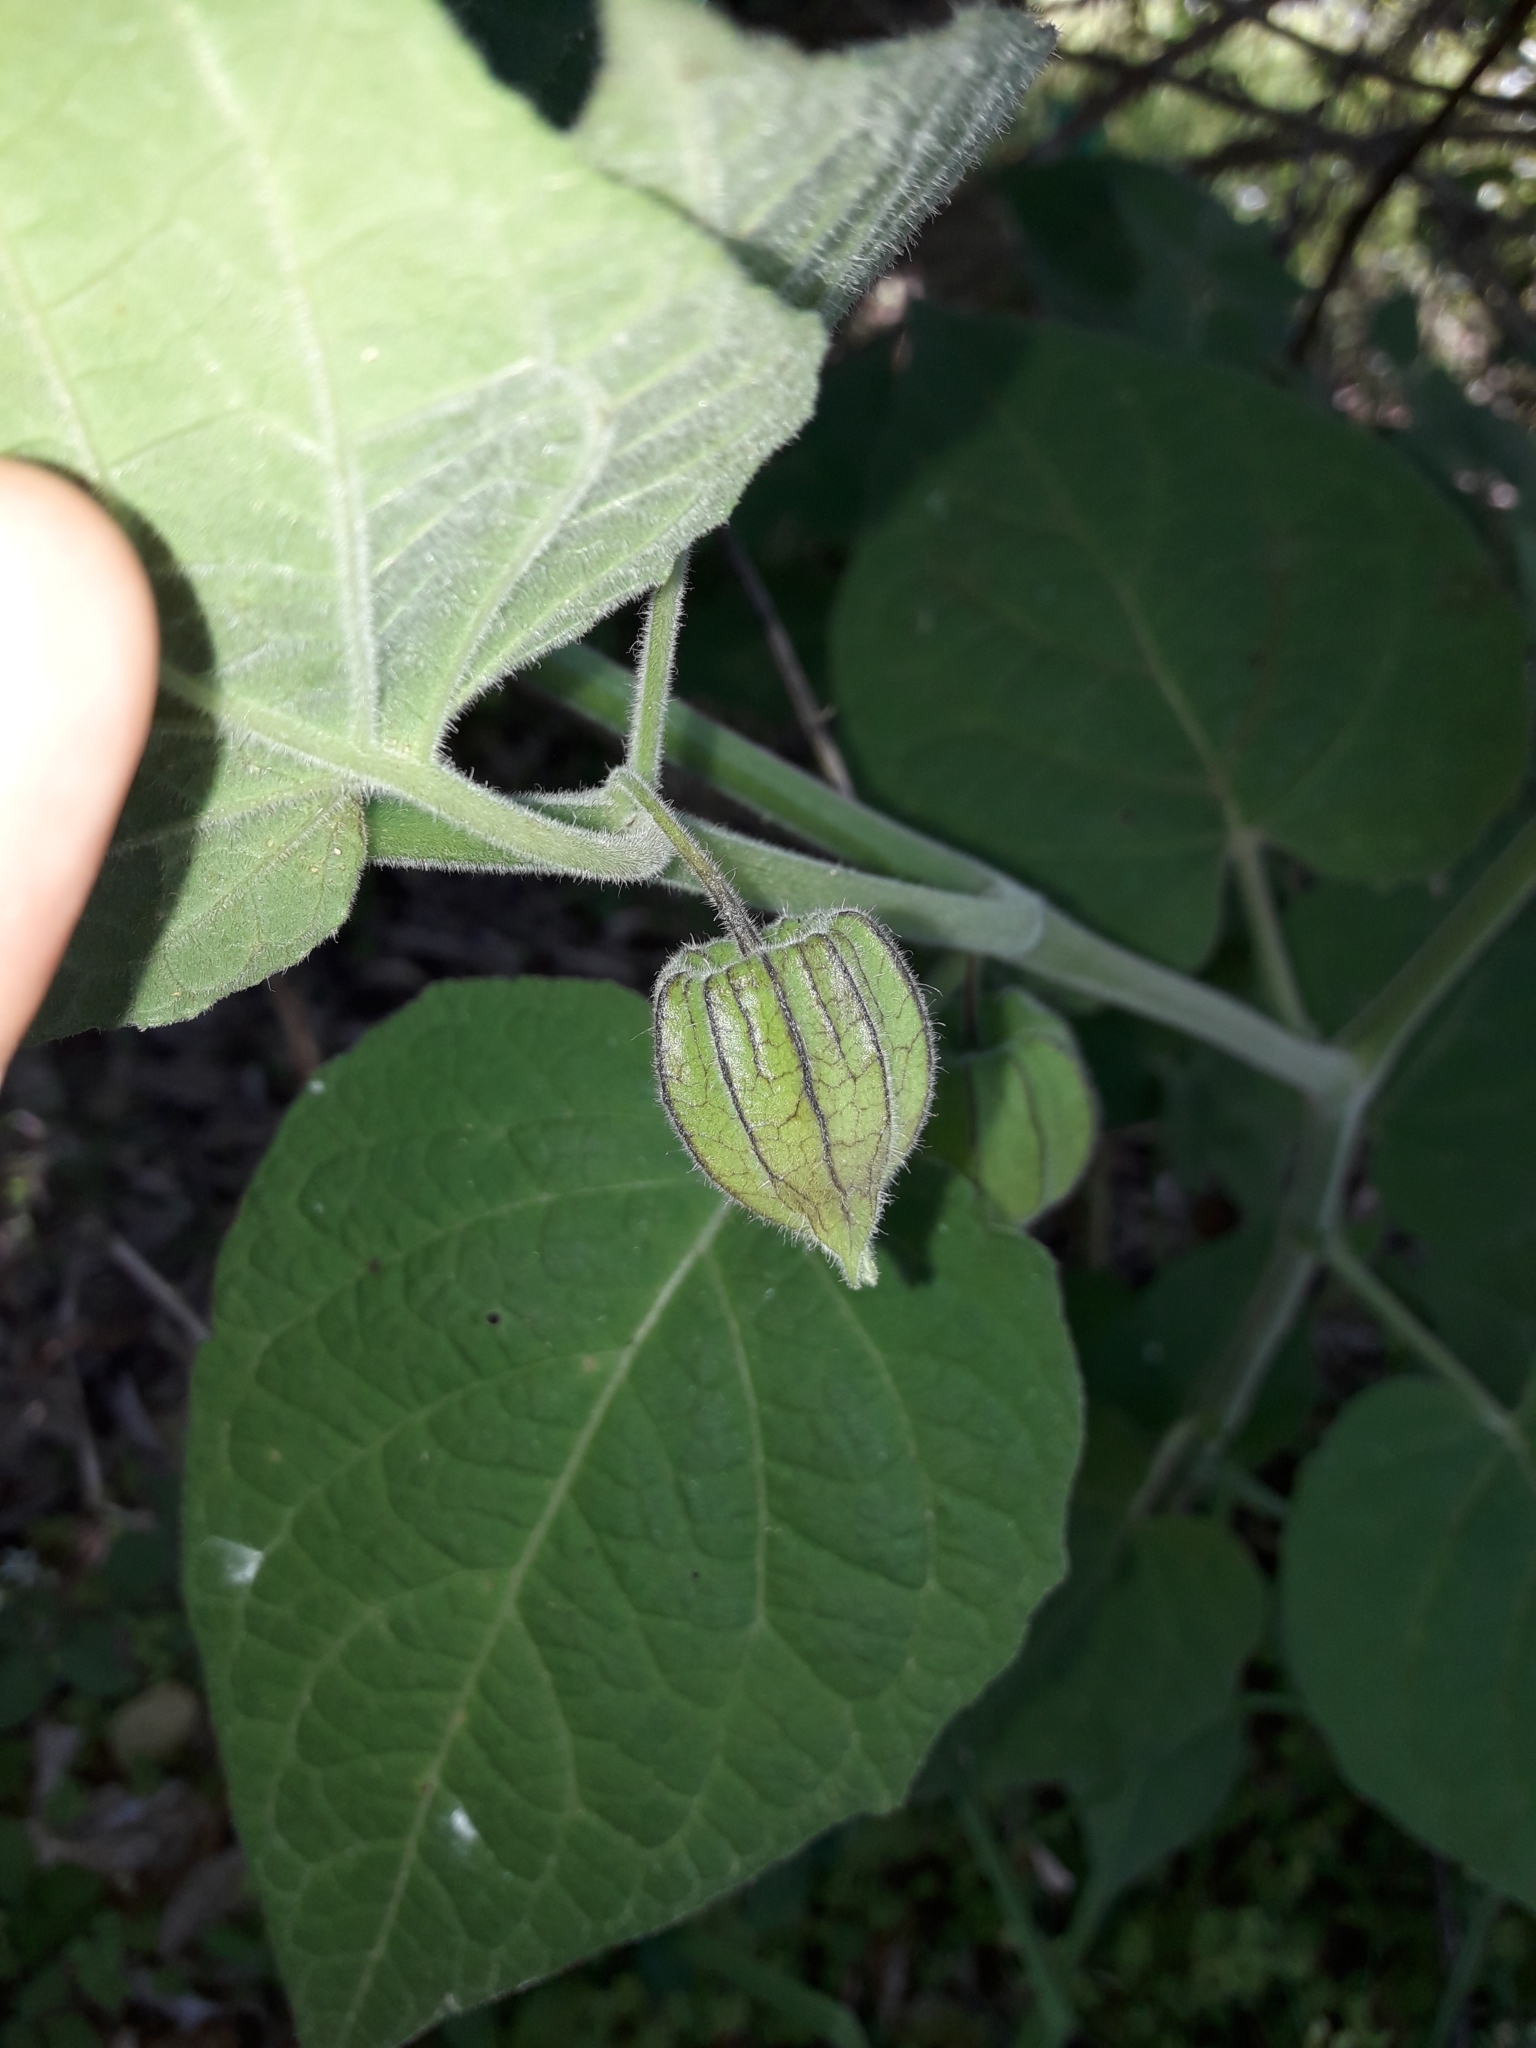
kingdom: Plantae
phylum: Tracheophyta
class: Magnoliopsida
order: Solanales
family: Solanaceae
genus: Physalis
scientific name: Physalis peruviana
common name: Cape-gooseberry
